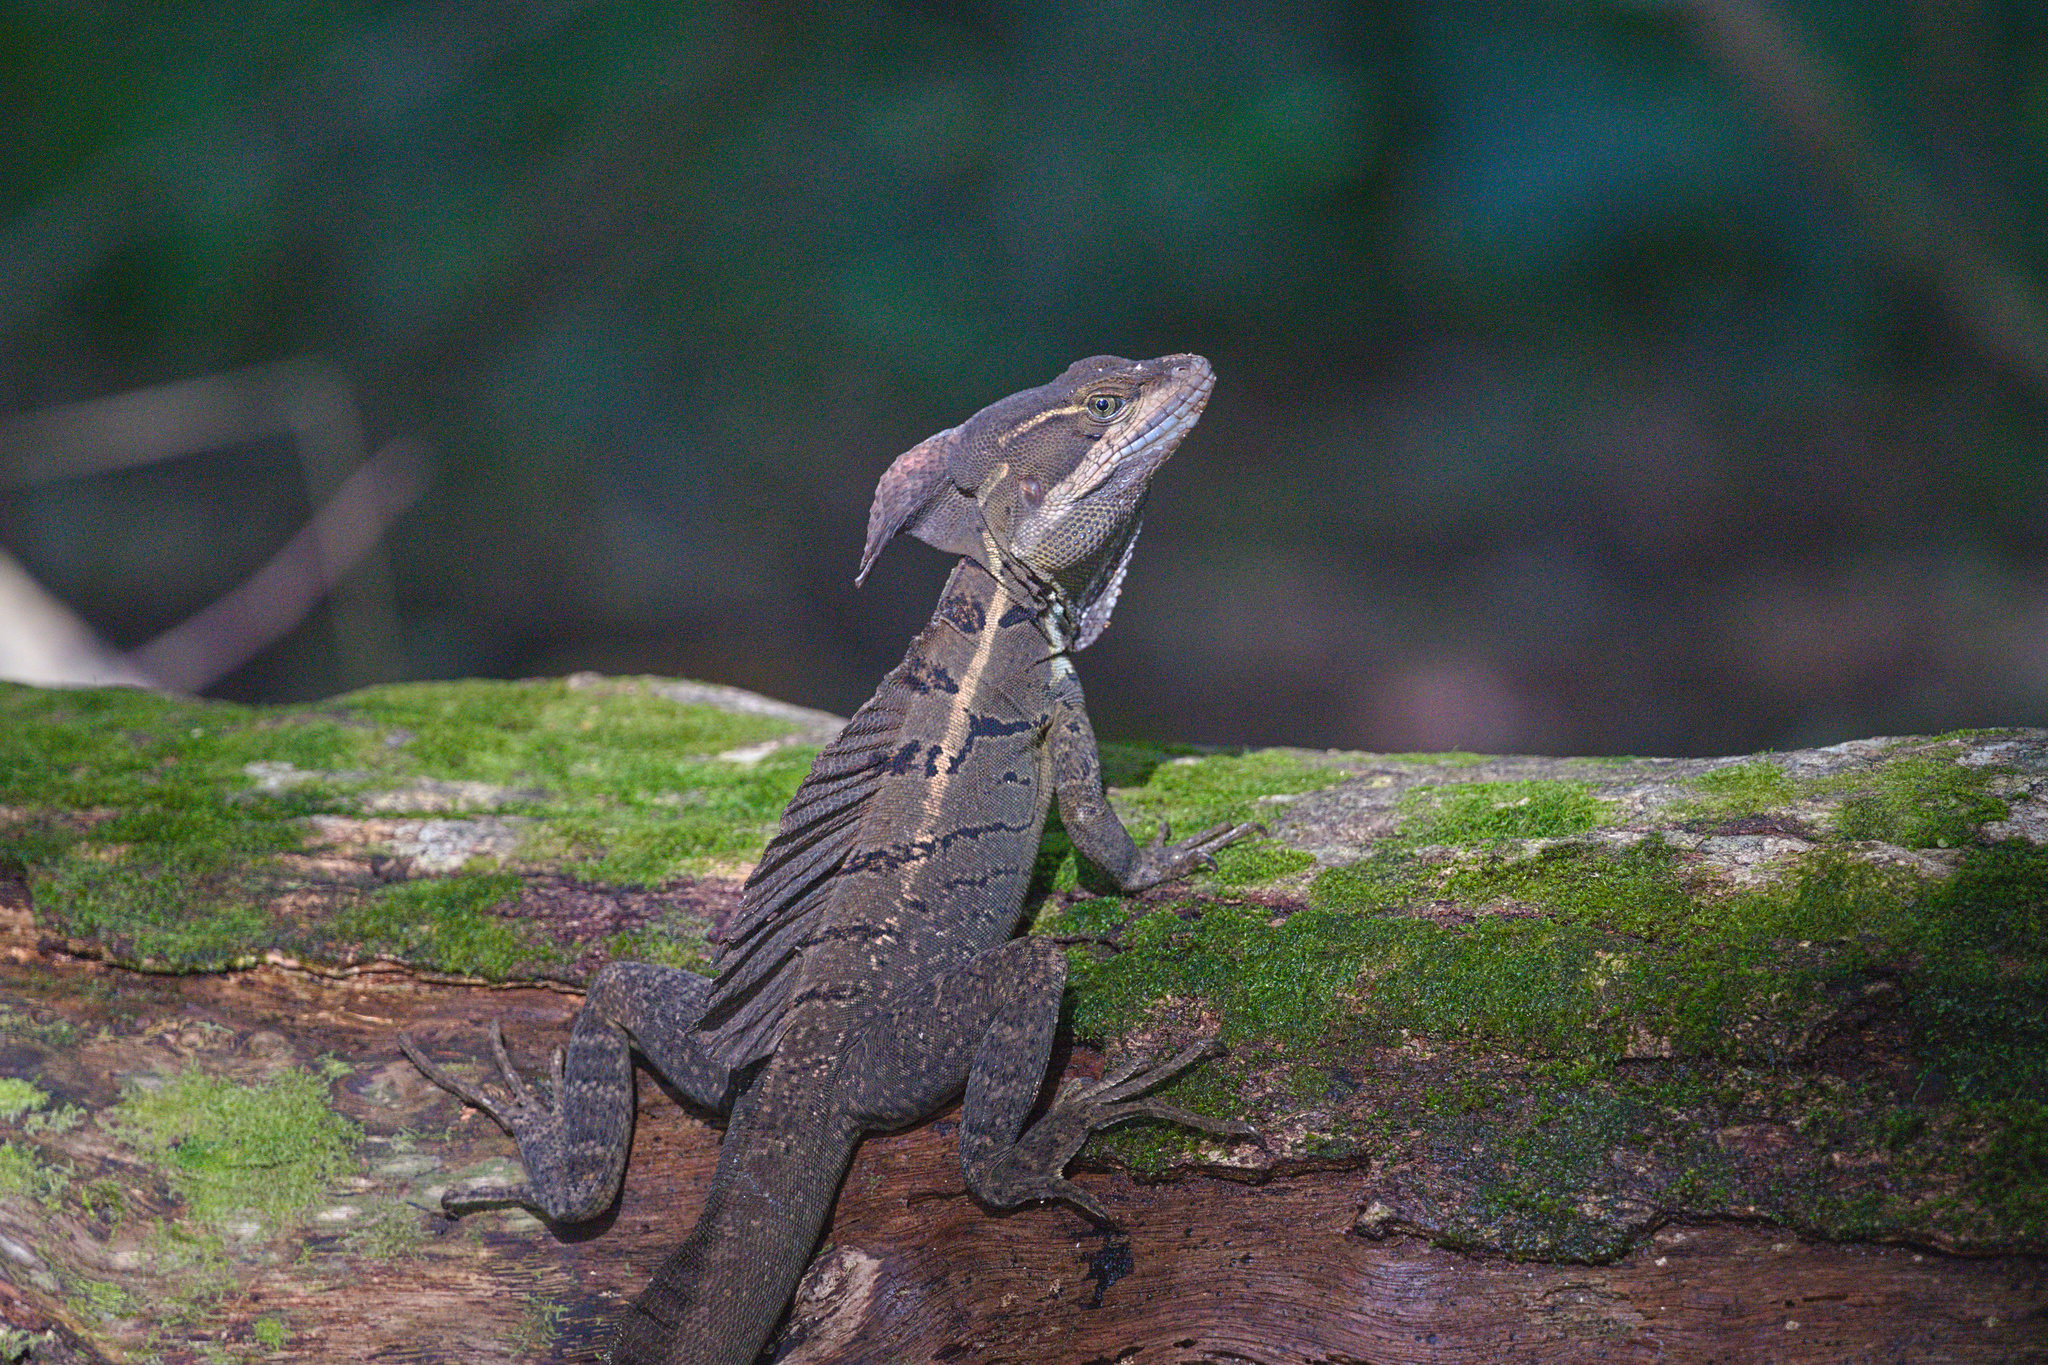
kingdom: Animalia
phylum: Chordata
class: Squamata
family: Corytophanidae
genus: Basiliscus
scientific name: Basiliscus basiliscus
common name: Common basilisk
